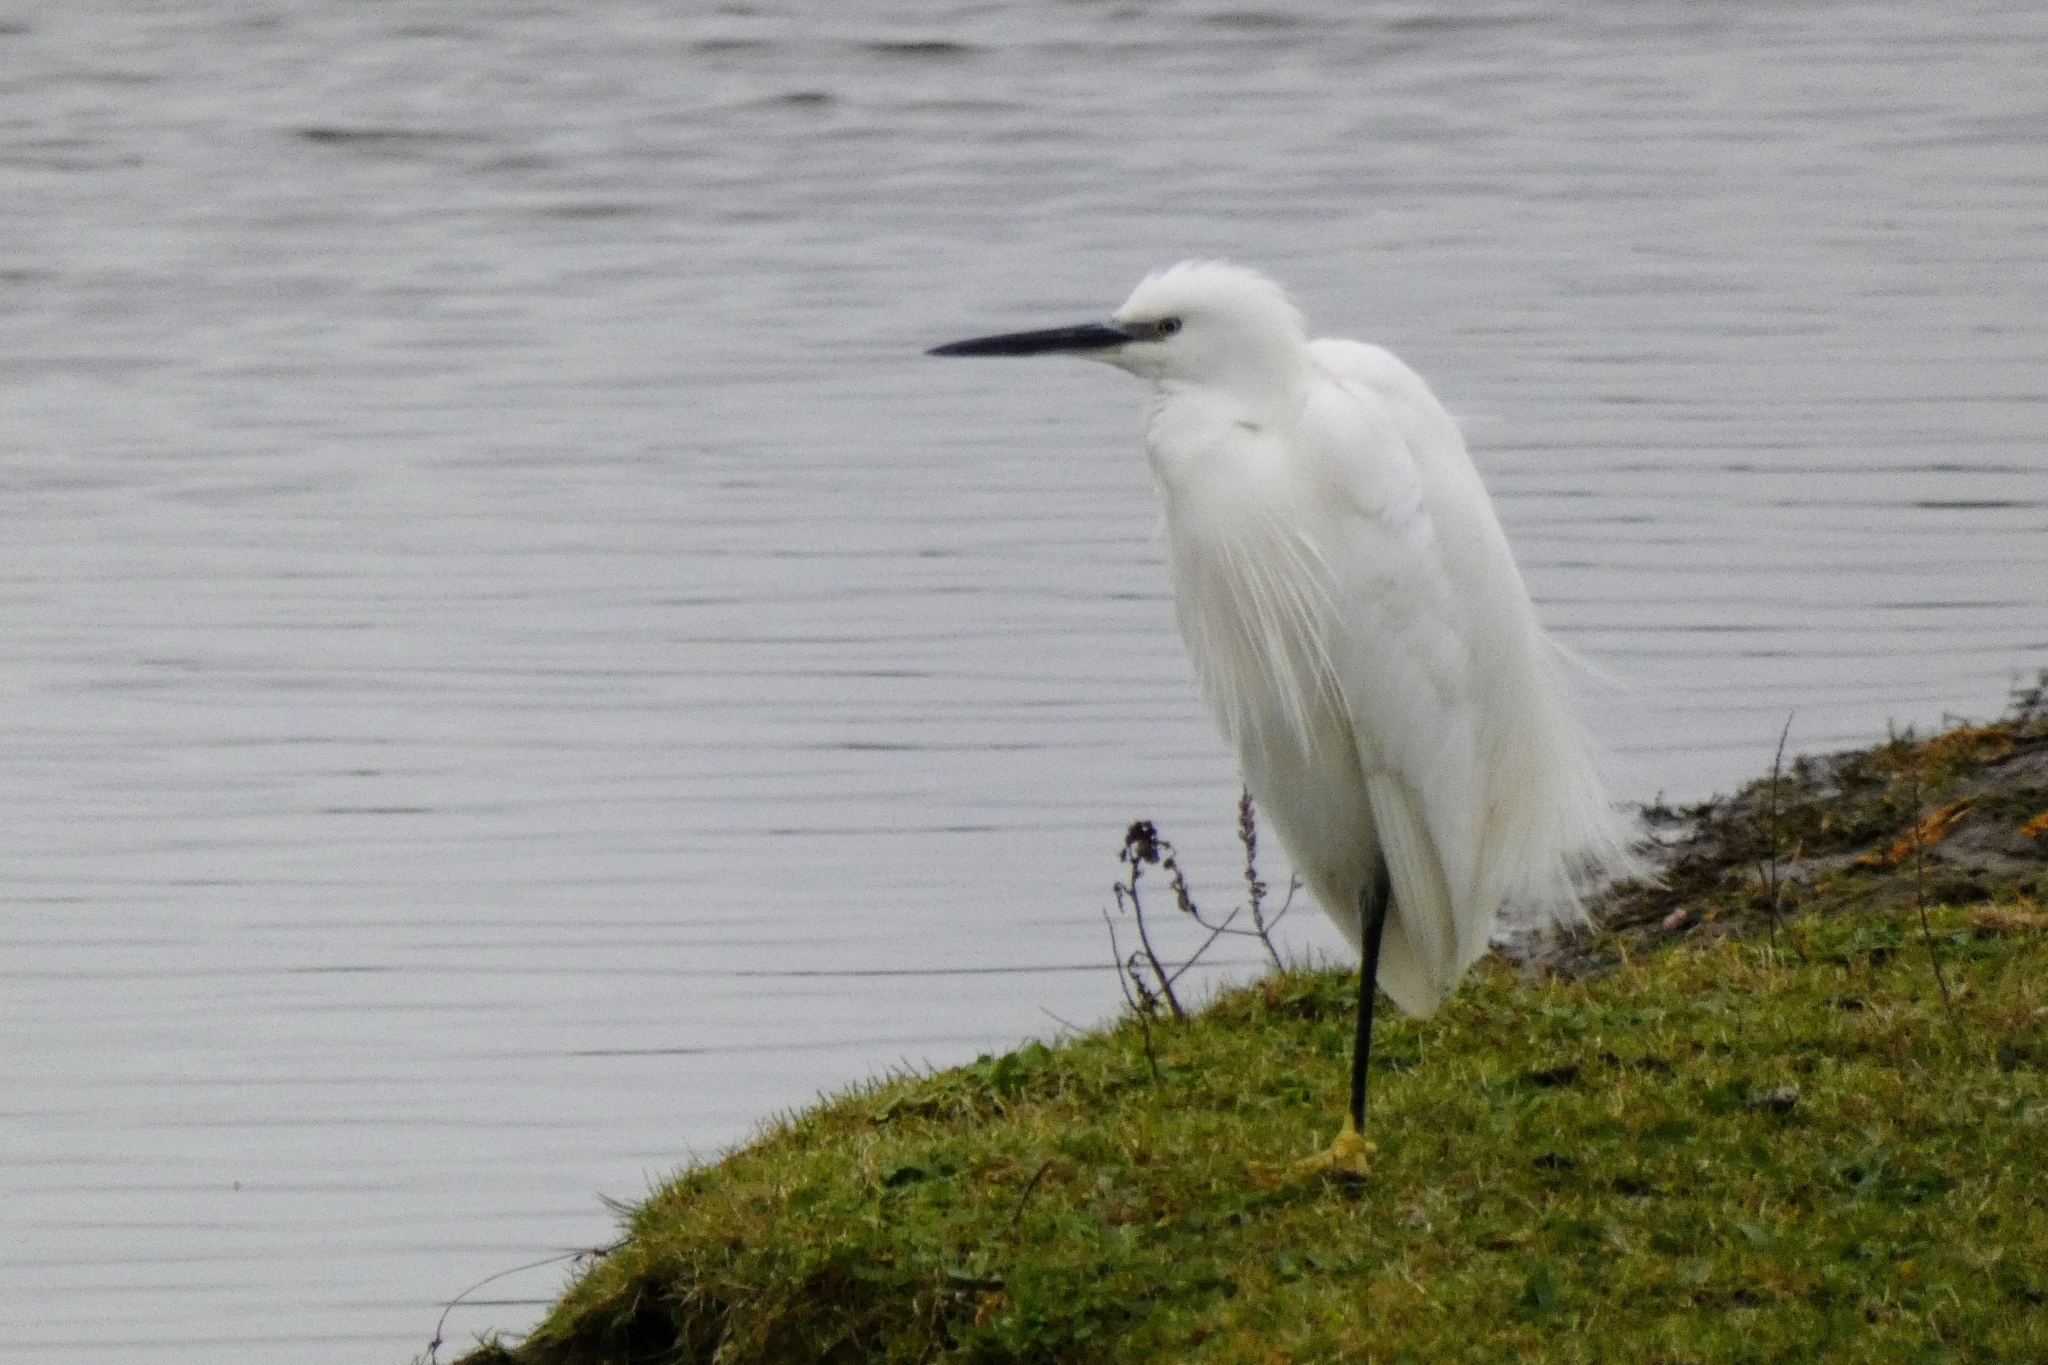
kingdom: Animalia
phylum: Chordata
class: Aves
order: Pelecaniformes
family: Ardeidae
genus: Egretta
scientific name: Egretta garzetta
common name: Little egret
